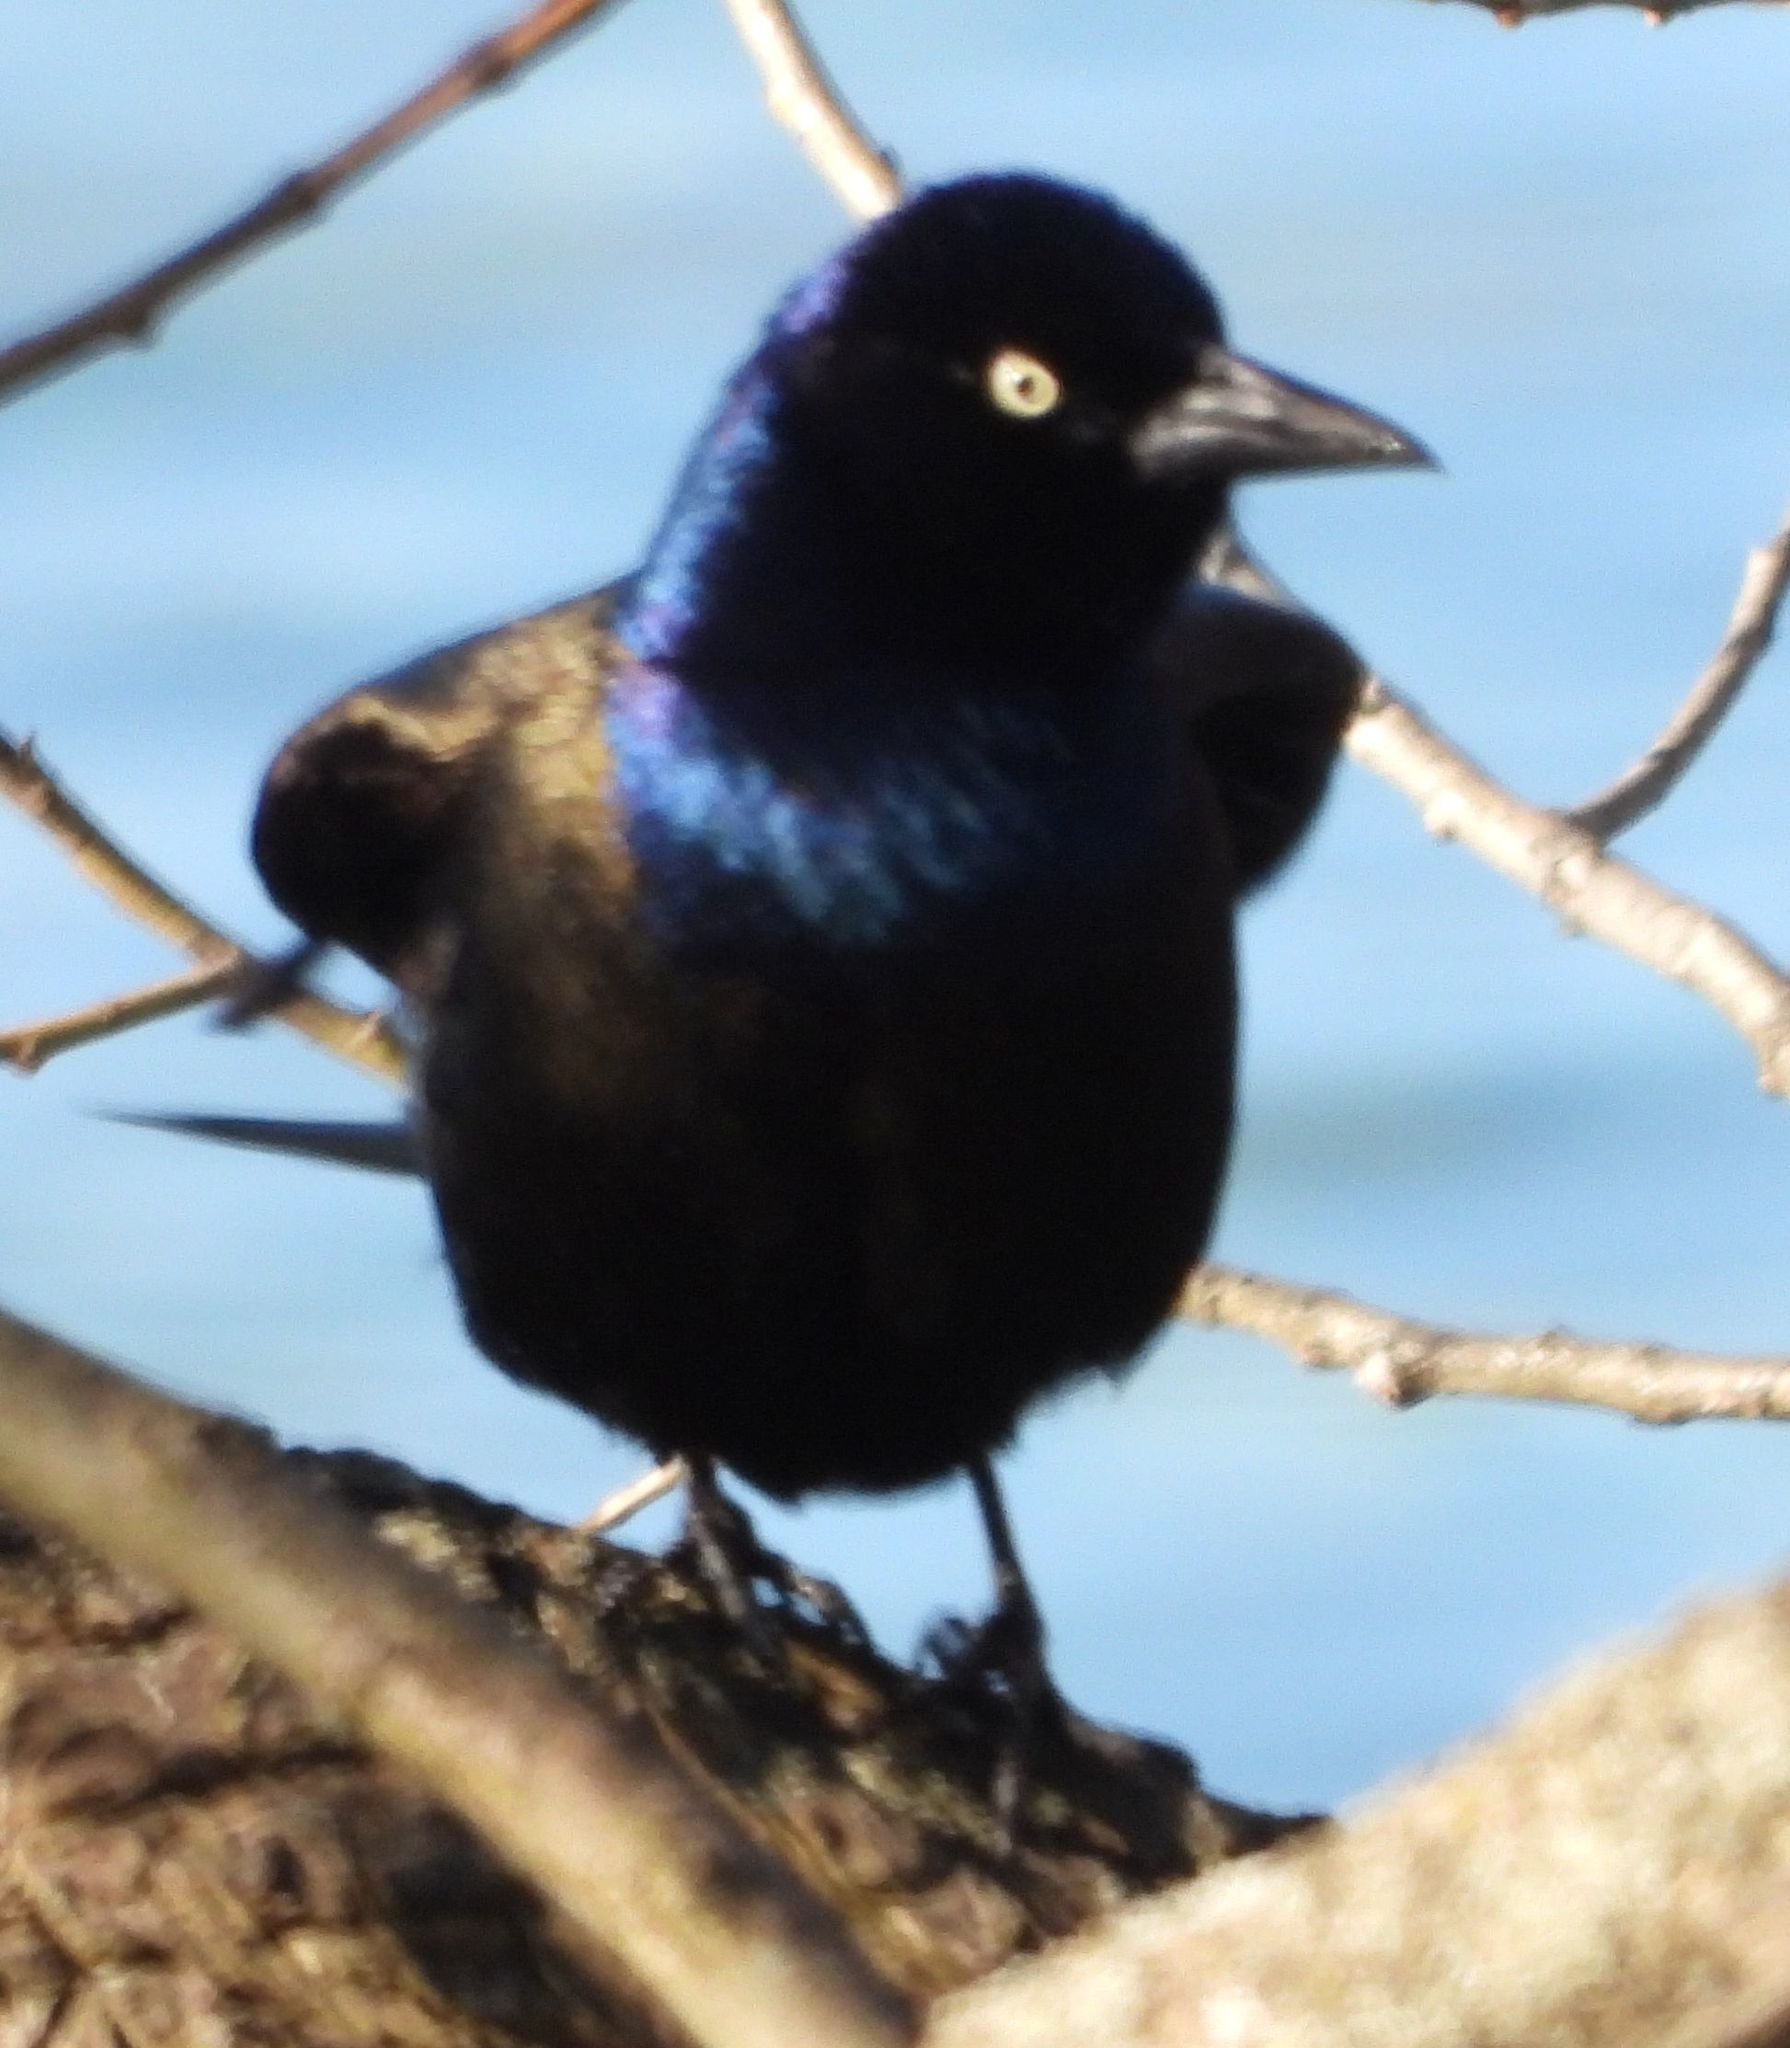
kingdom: Animalia
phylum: Chordata
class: Aves
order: Passeriformes
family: Icteridae
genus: Quiscalus
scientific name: Quiscalus quiscula
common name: Common grackle
